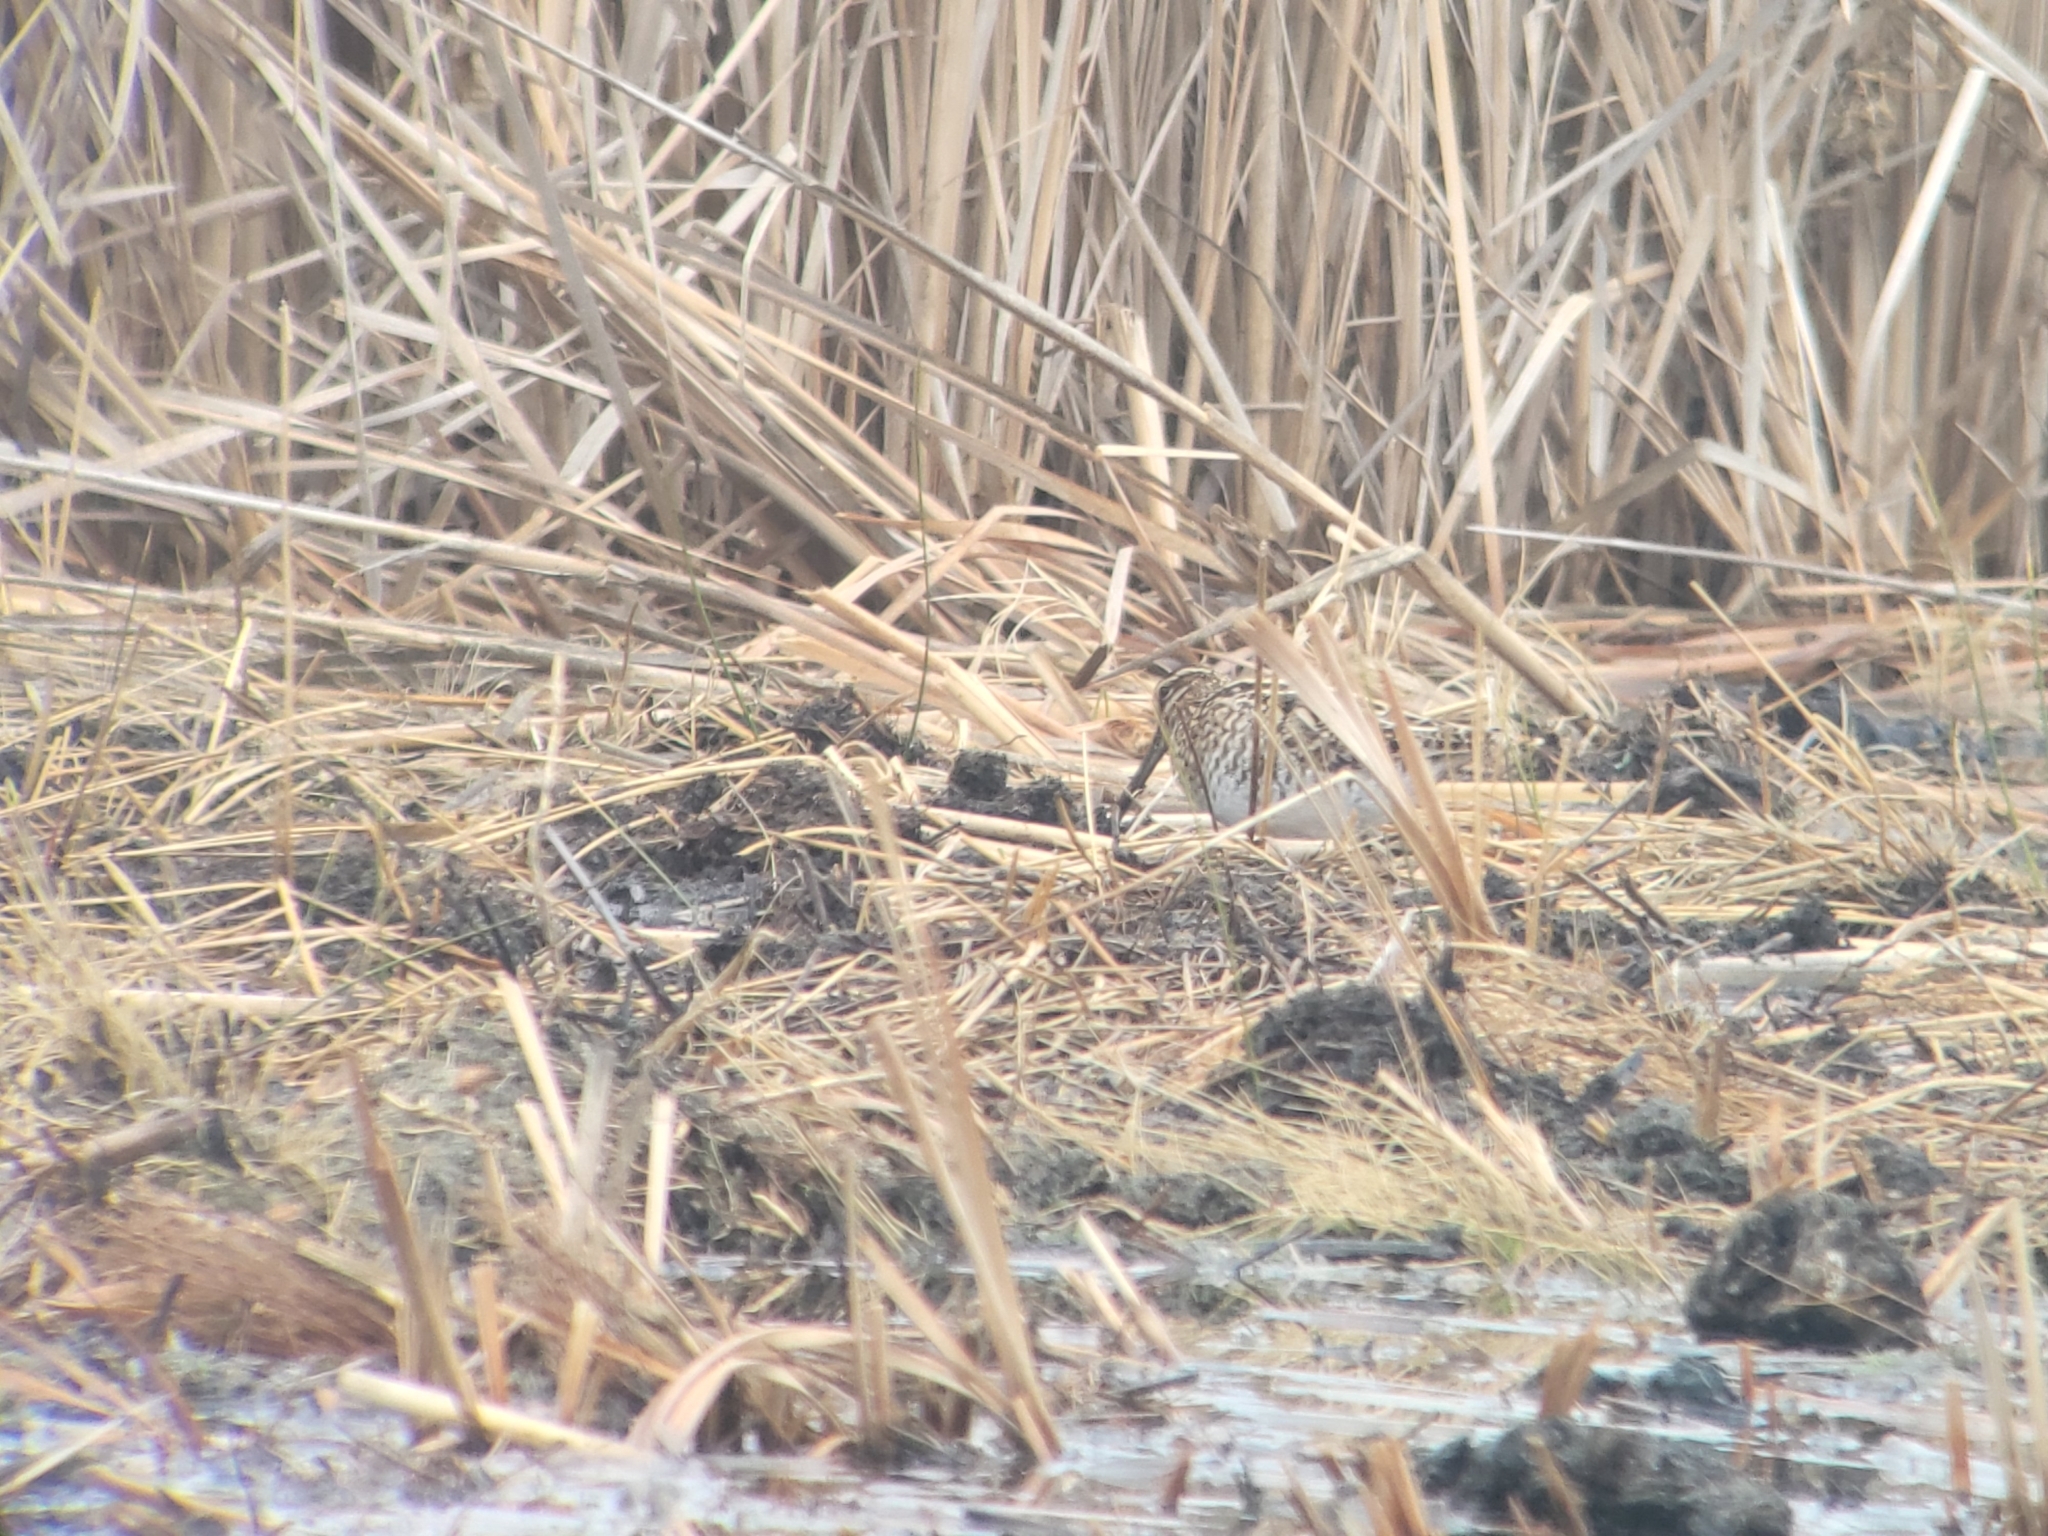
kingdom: Animalia
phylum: Chordata
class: Aves
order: Charadriiformes
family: Scolopacidae
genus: Gallinago
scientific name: Gallinago delicata
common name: Wilson's snipe
